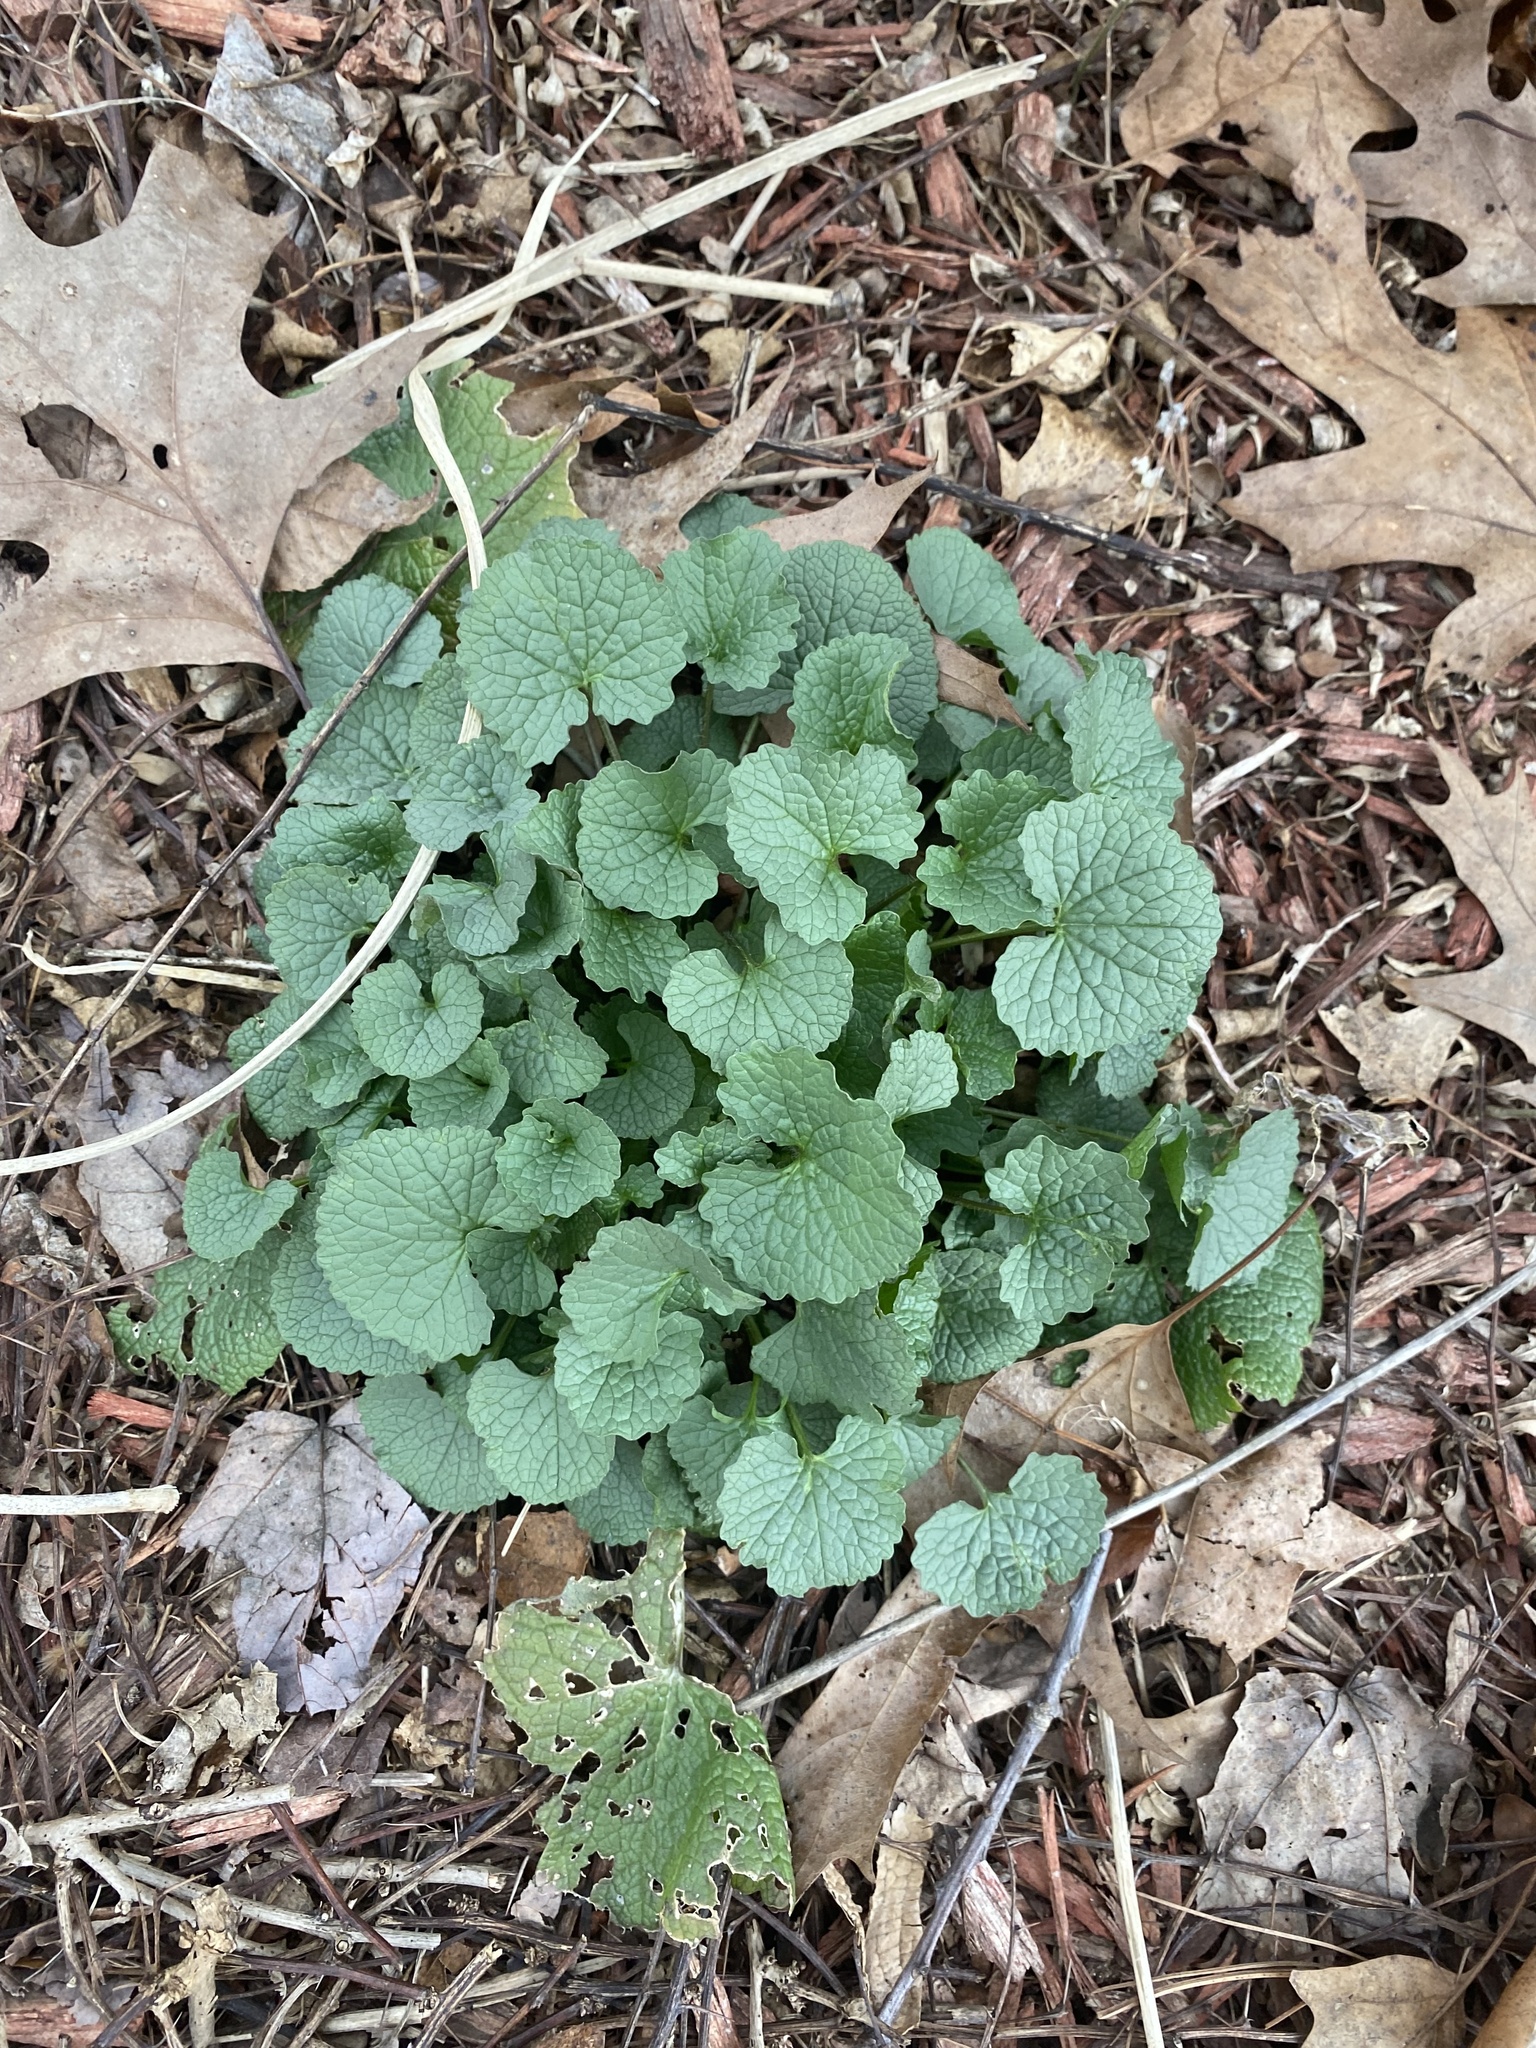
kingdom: Plantae
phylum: Tracheophyta
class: Magnoliopsida
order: Brassicales
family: Brassicaceae
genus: Alliaria
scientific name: Alliaria petiolata
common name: Garlic mustard
